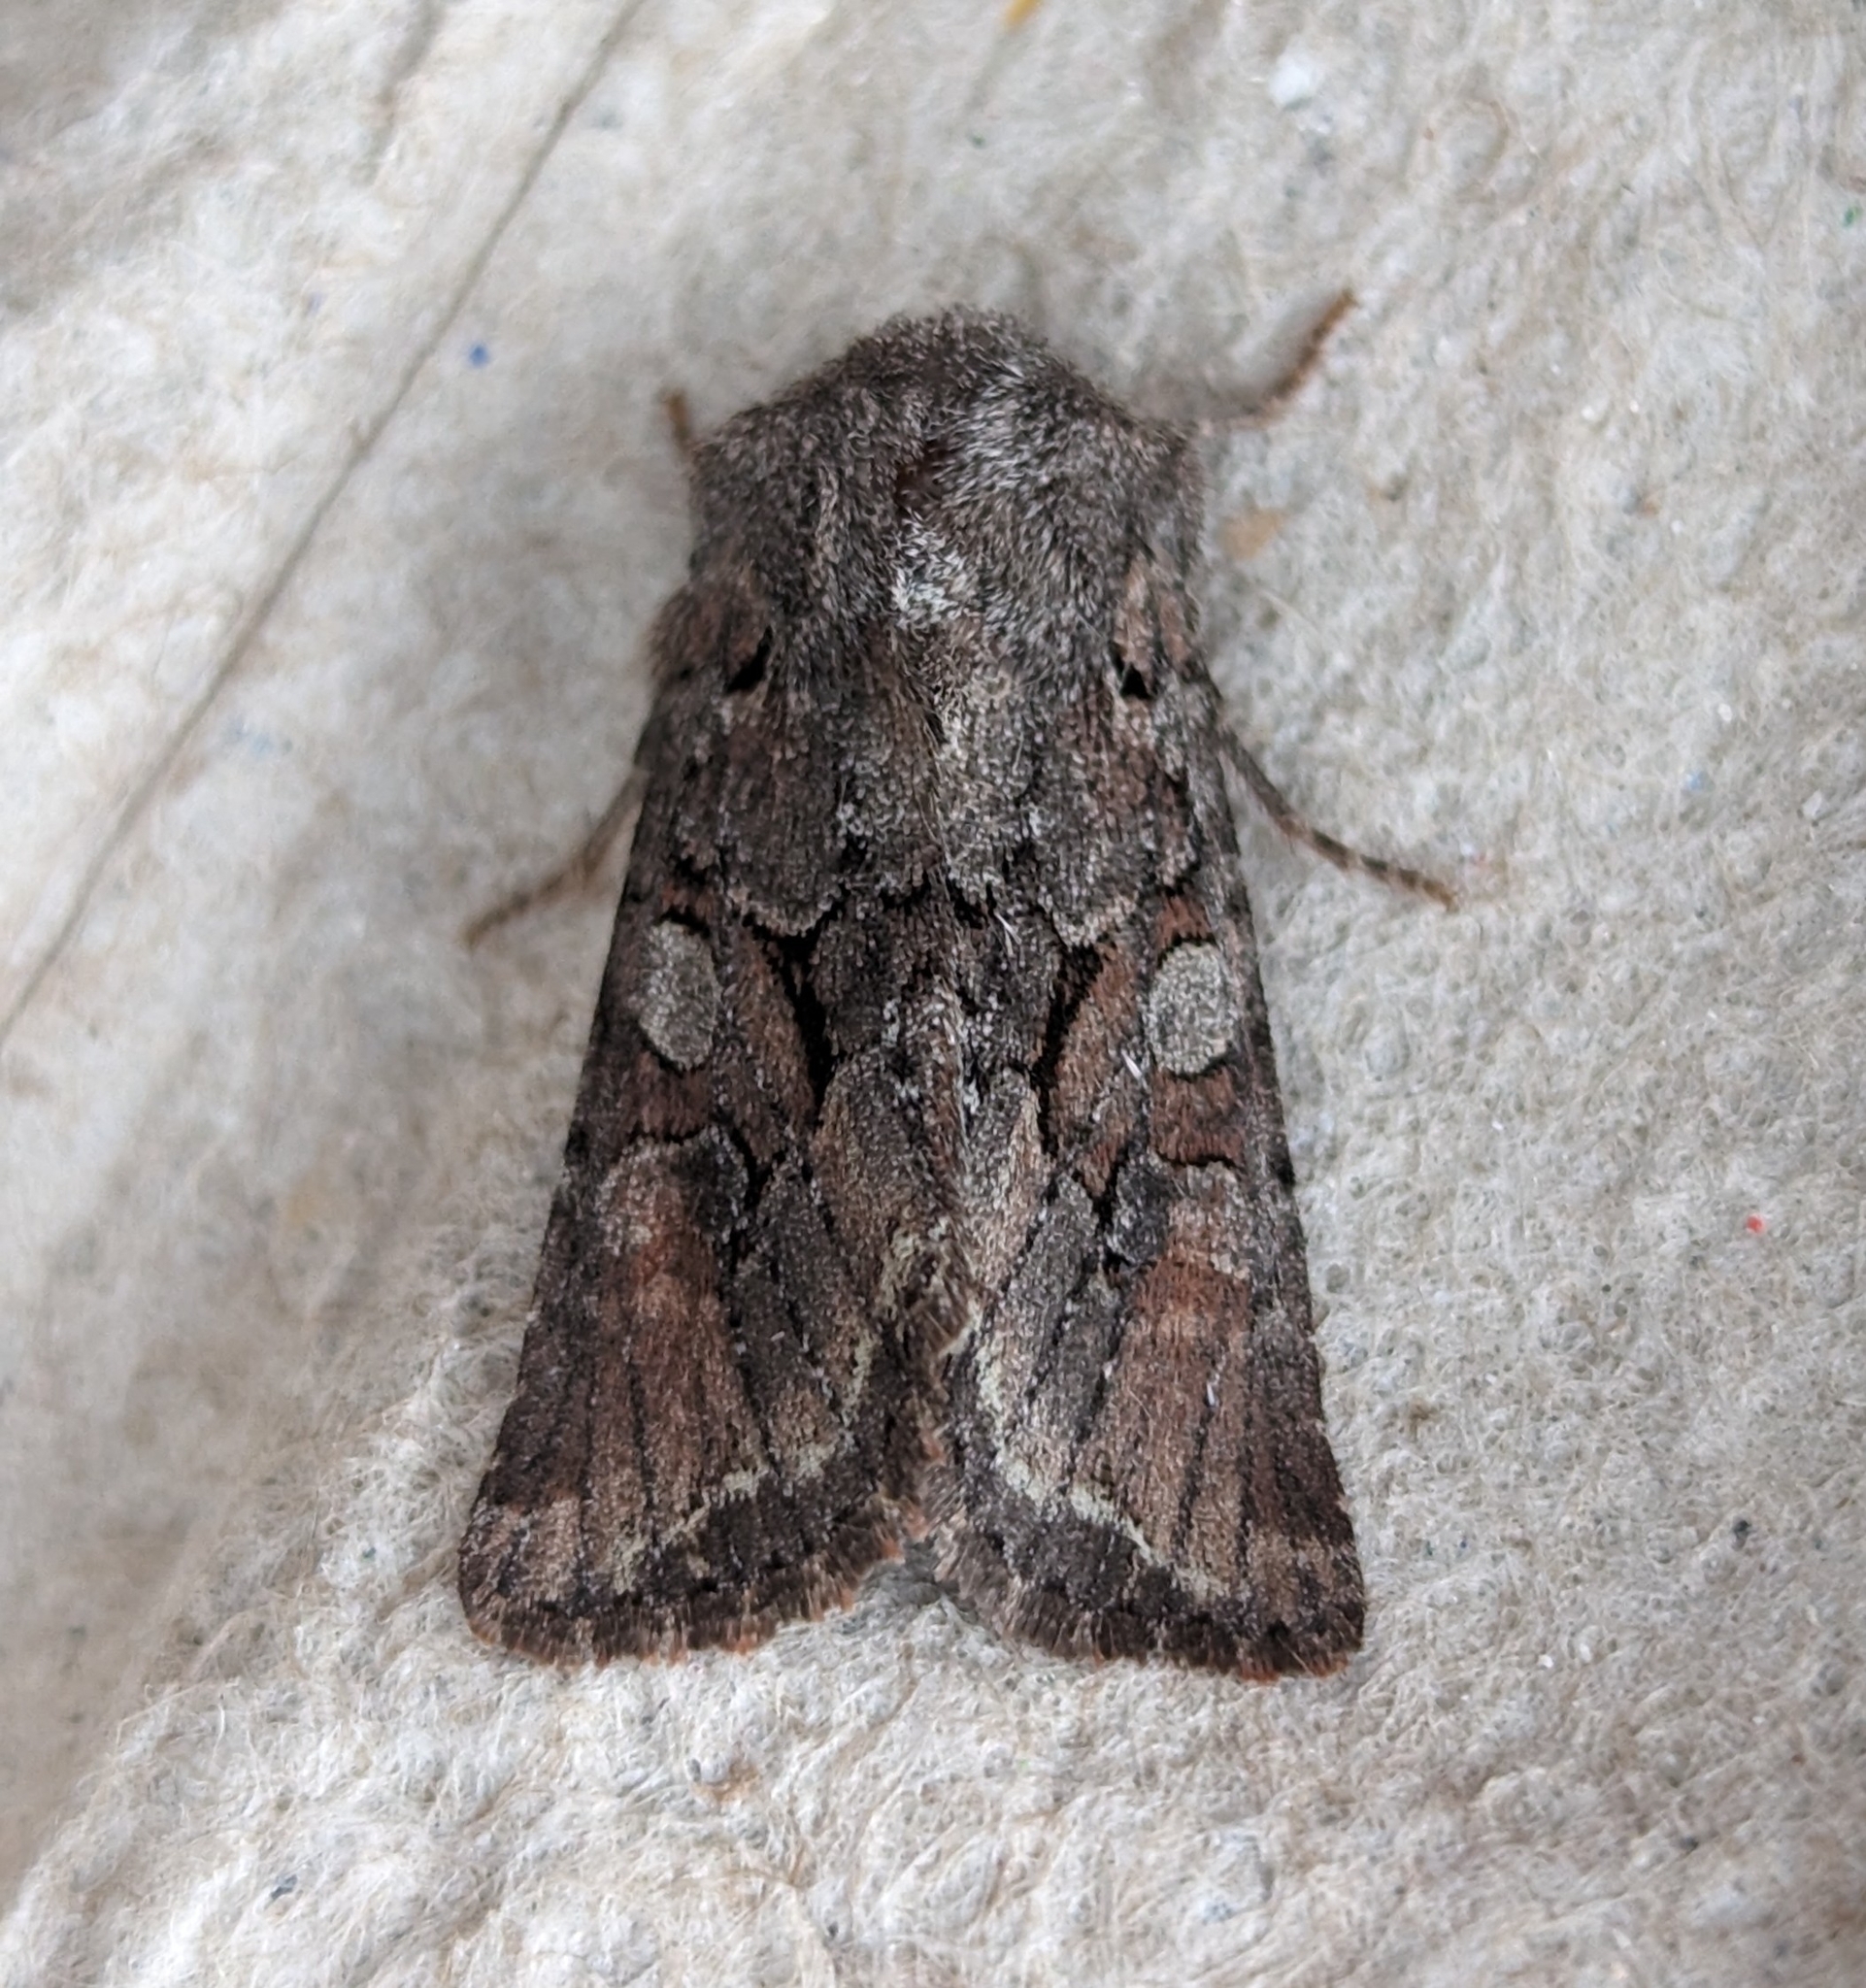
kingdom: Animalia
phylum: Arthropoda
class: Insecta
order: Lepidoptera
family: Noctuidae
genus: Orthosia
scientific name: Orthosia segregata
